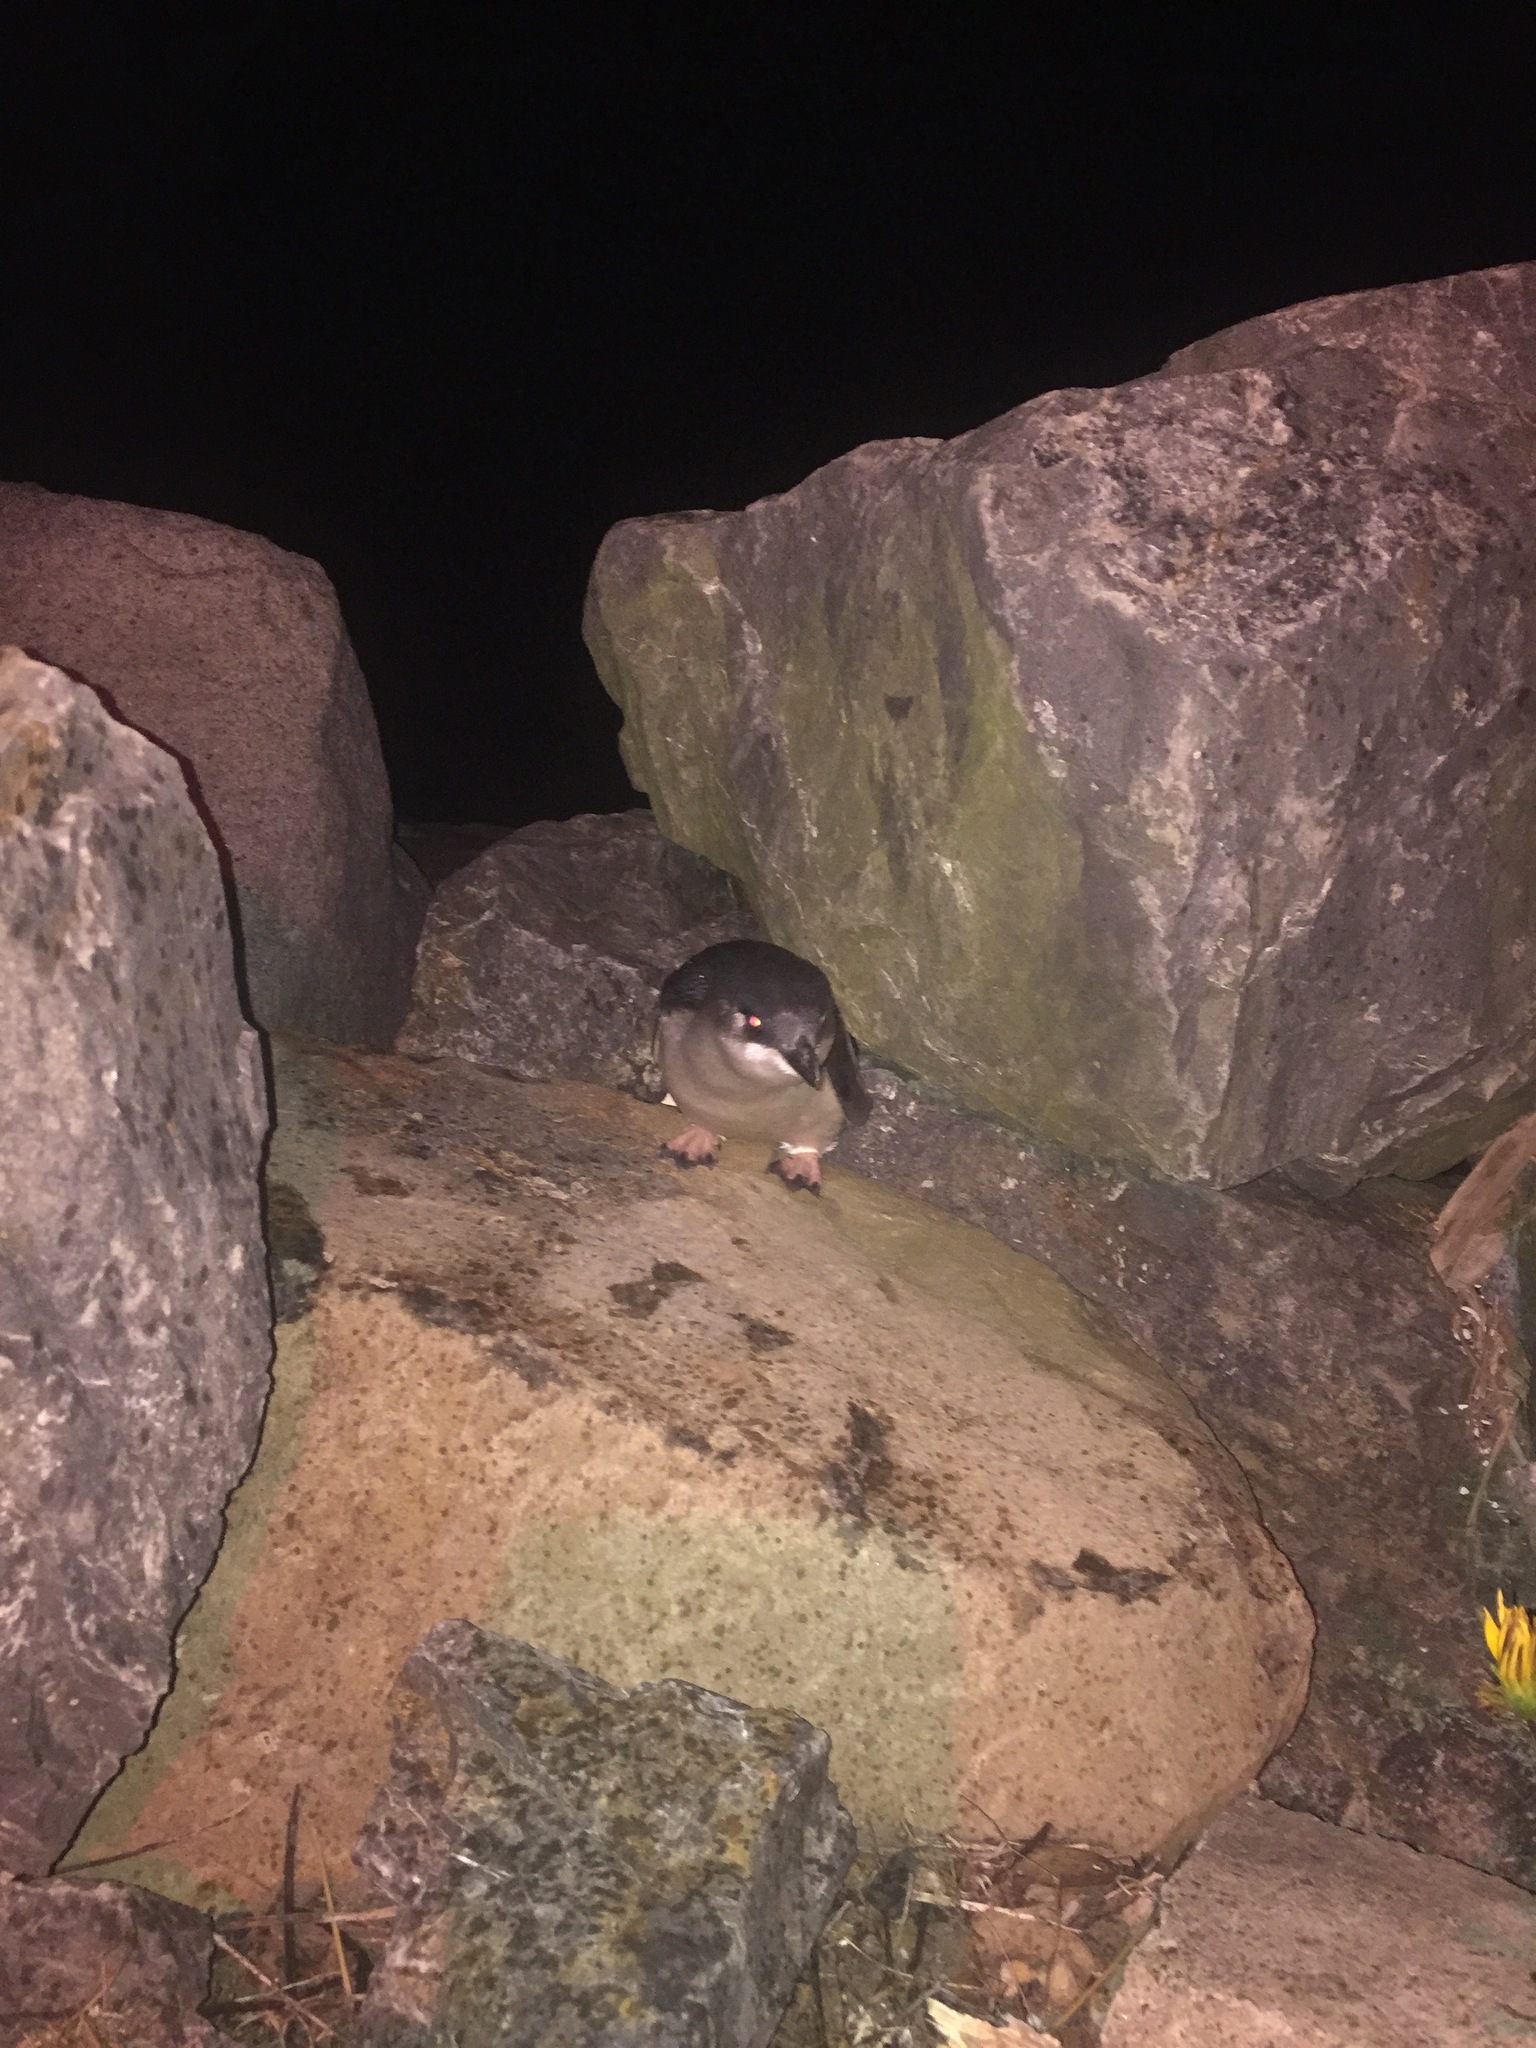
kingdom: Animalia
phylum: Chordata
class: Aves
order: Sphenisciformes
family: Spheniscidae
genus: Eudyptula
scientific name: Eudyptula minor
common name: Little penguin
